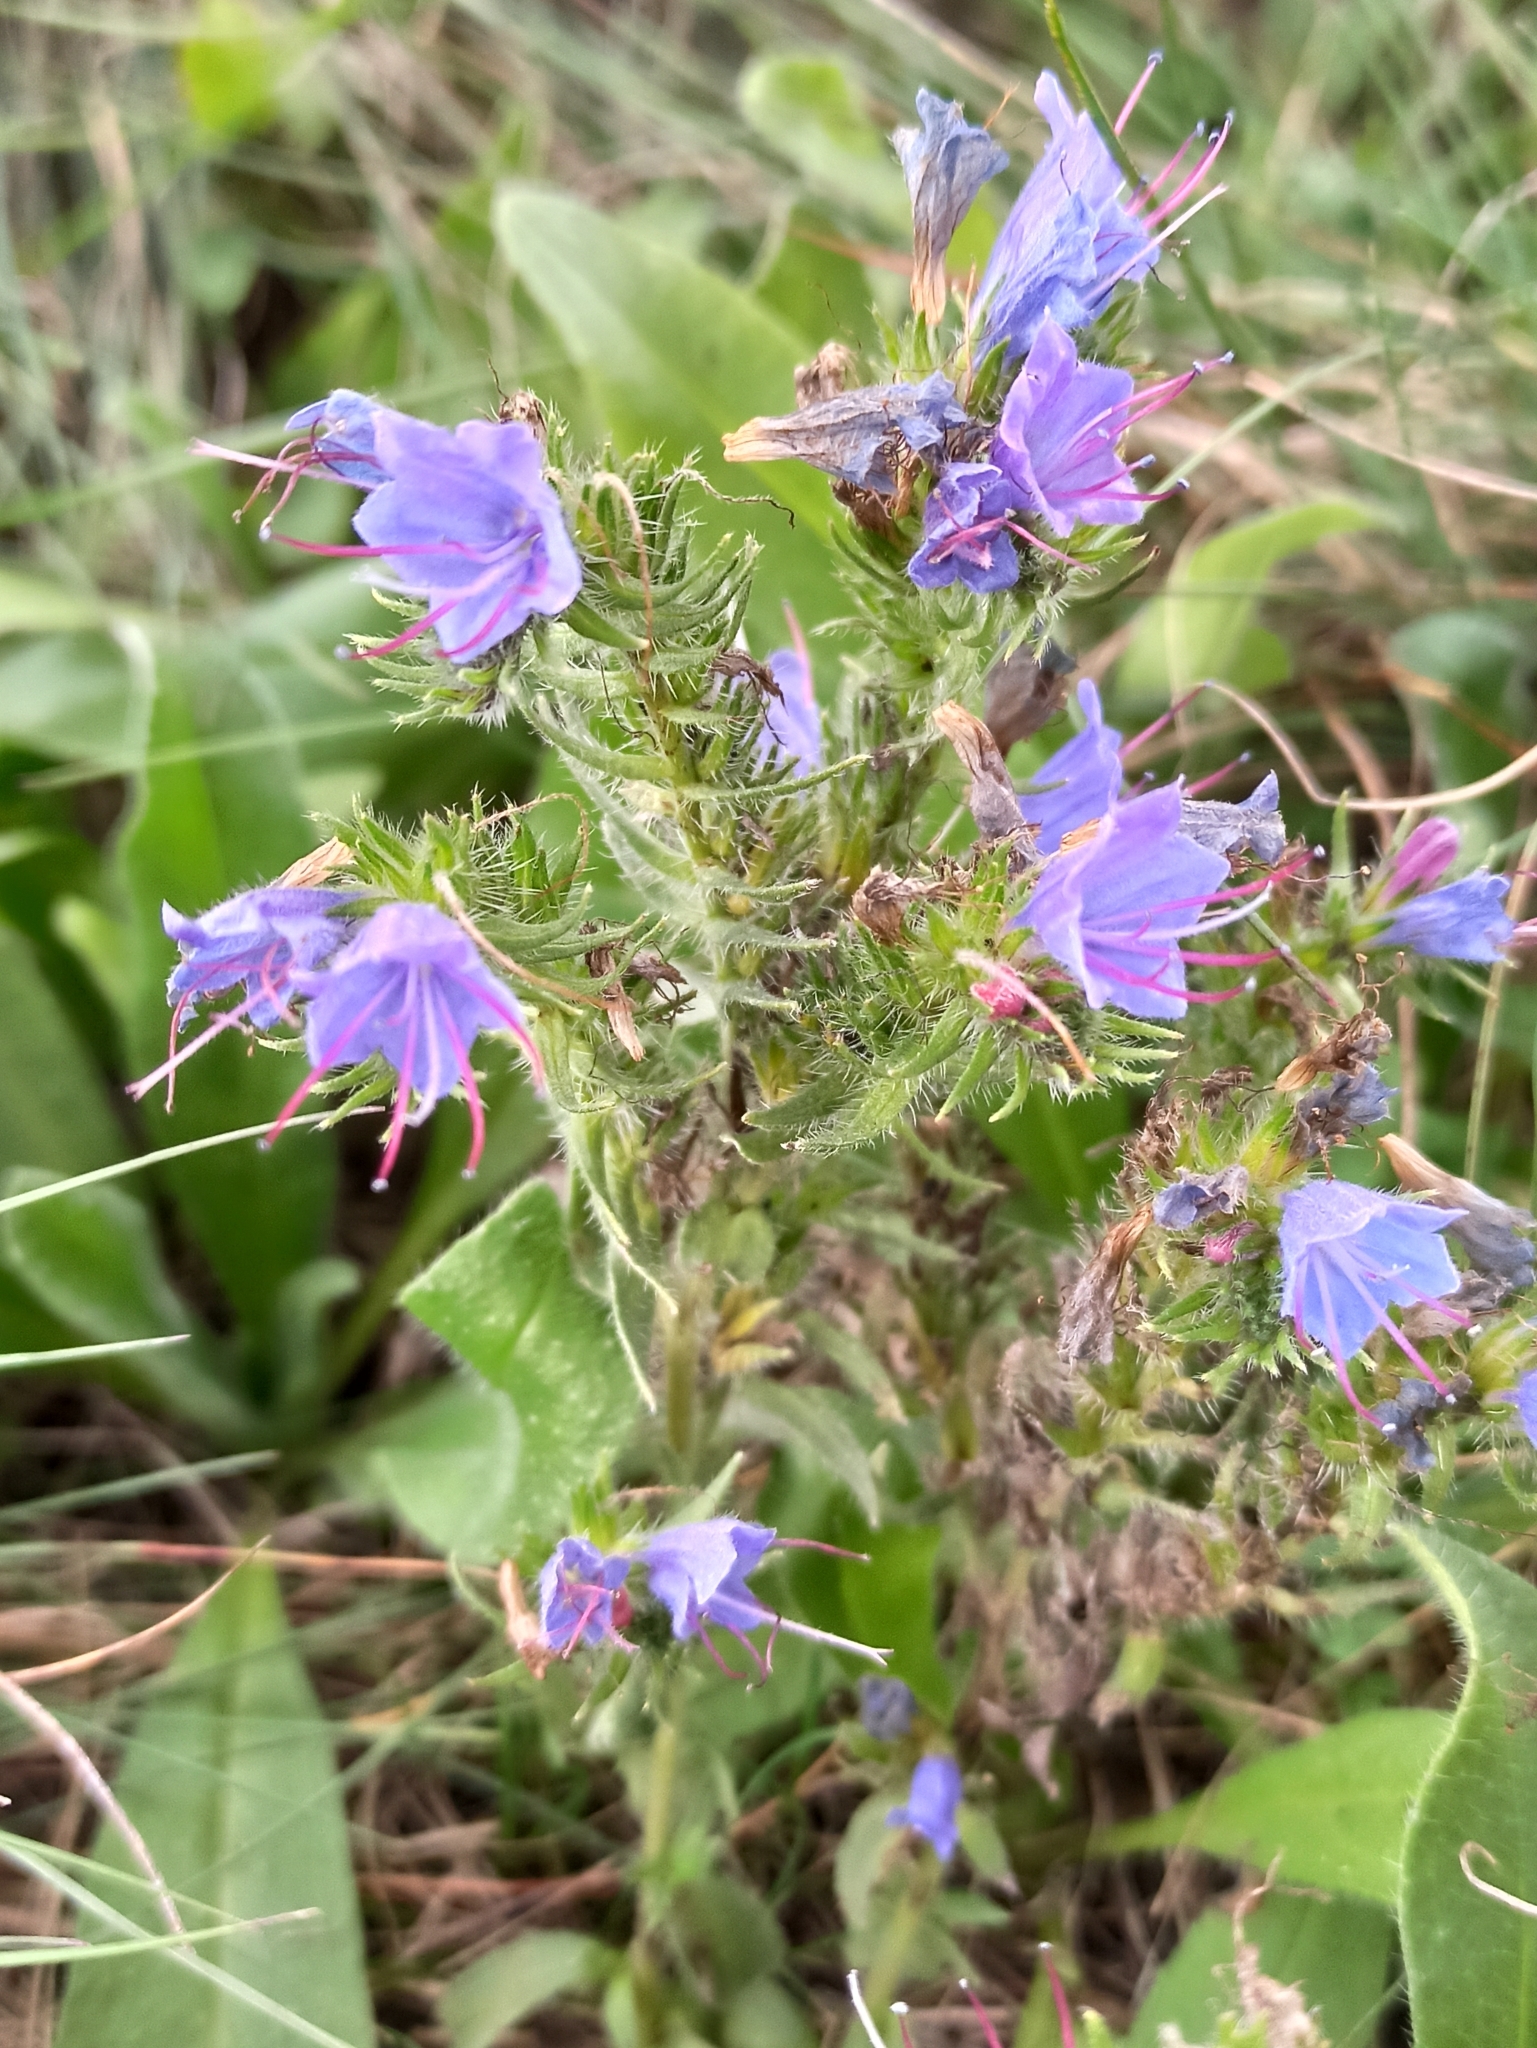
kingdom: Plantae
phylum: Tracheophyta
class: Magnoliopsida
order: Boraginales
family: Boraginaceae
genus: Echium
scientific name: Echium vulgare
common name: Common viper's bugloss
